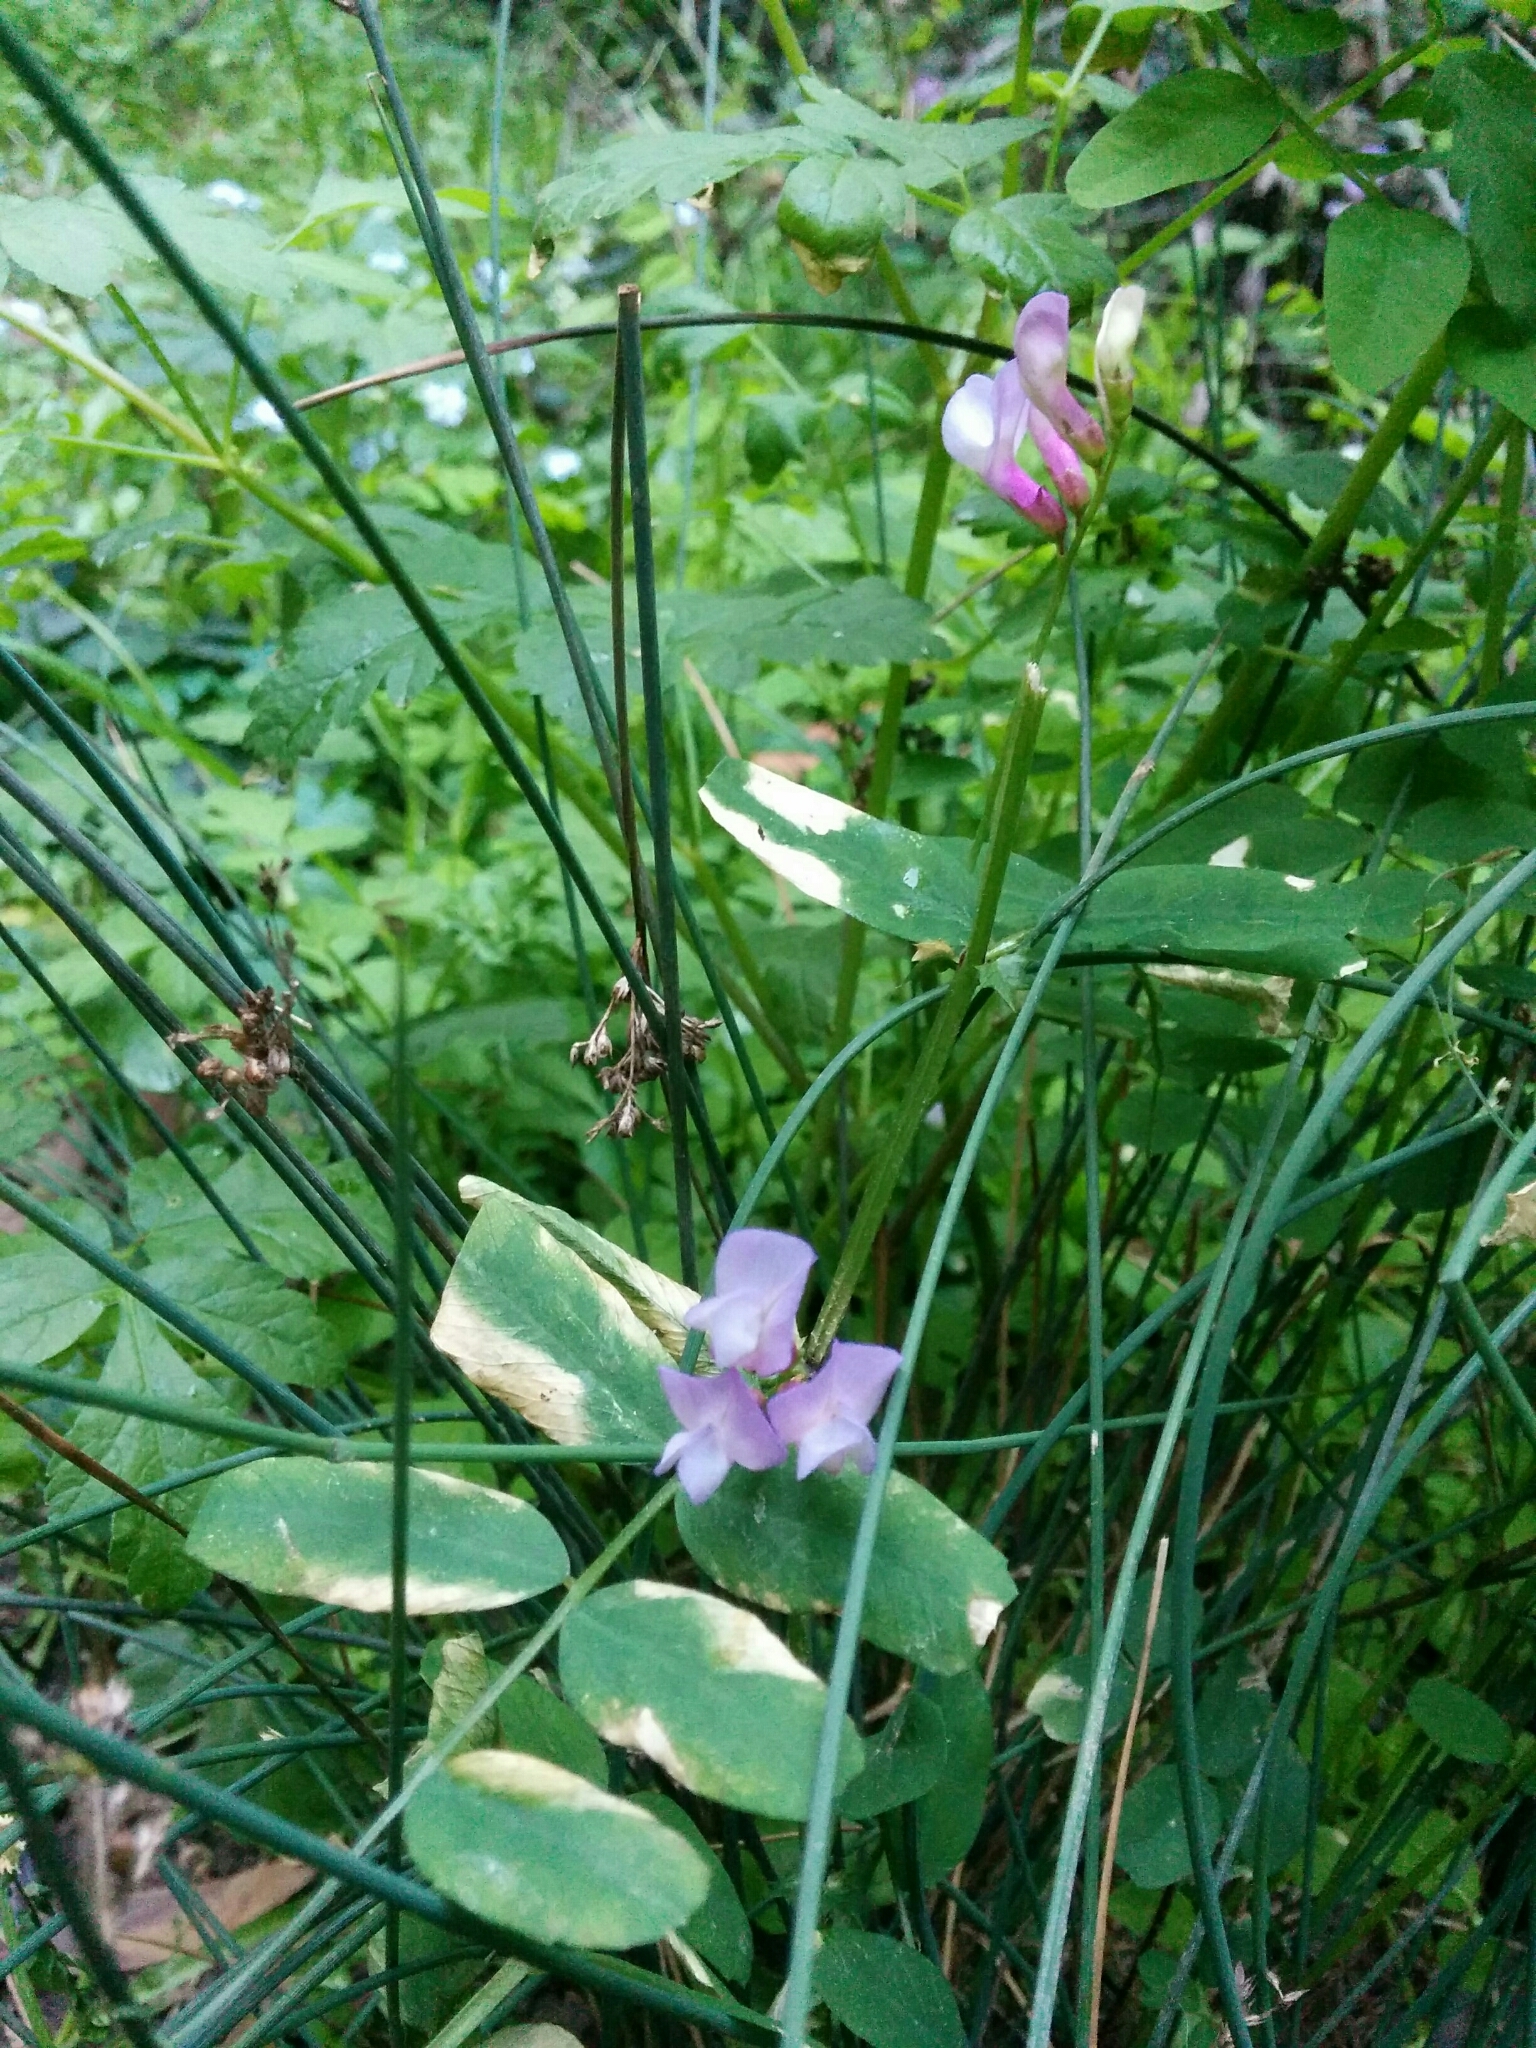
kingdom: Plantae
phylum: Tracheophyta
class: Magnoliopsida
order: Fabales
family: Fabaceae
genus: Vicia
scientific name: Vicia americana
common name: American vetch
